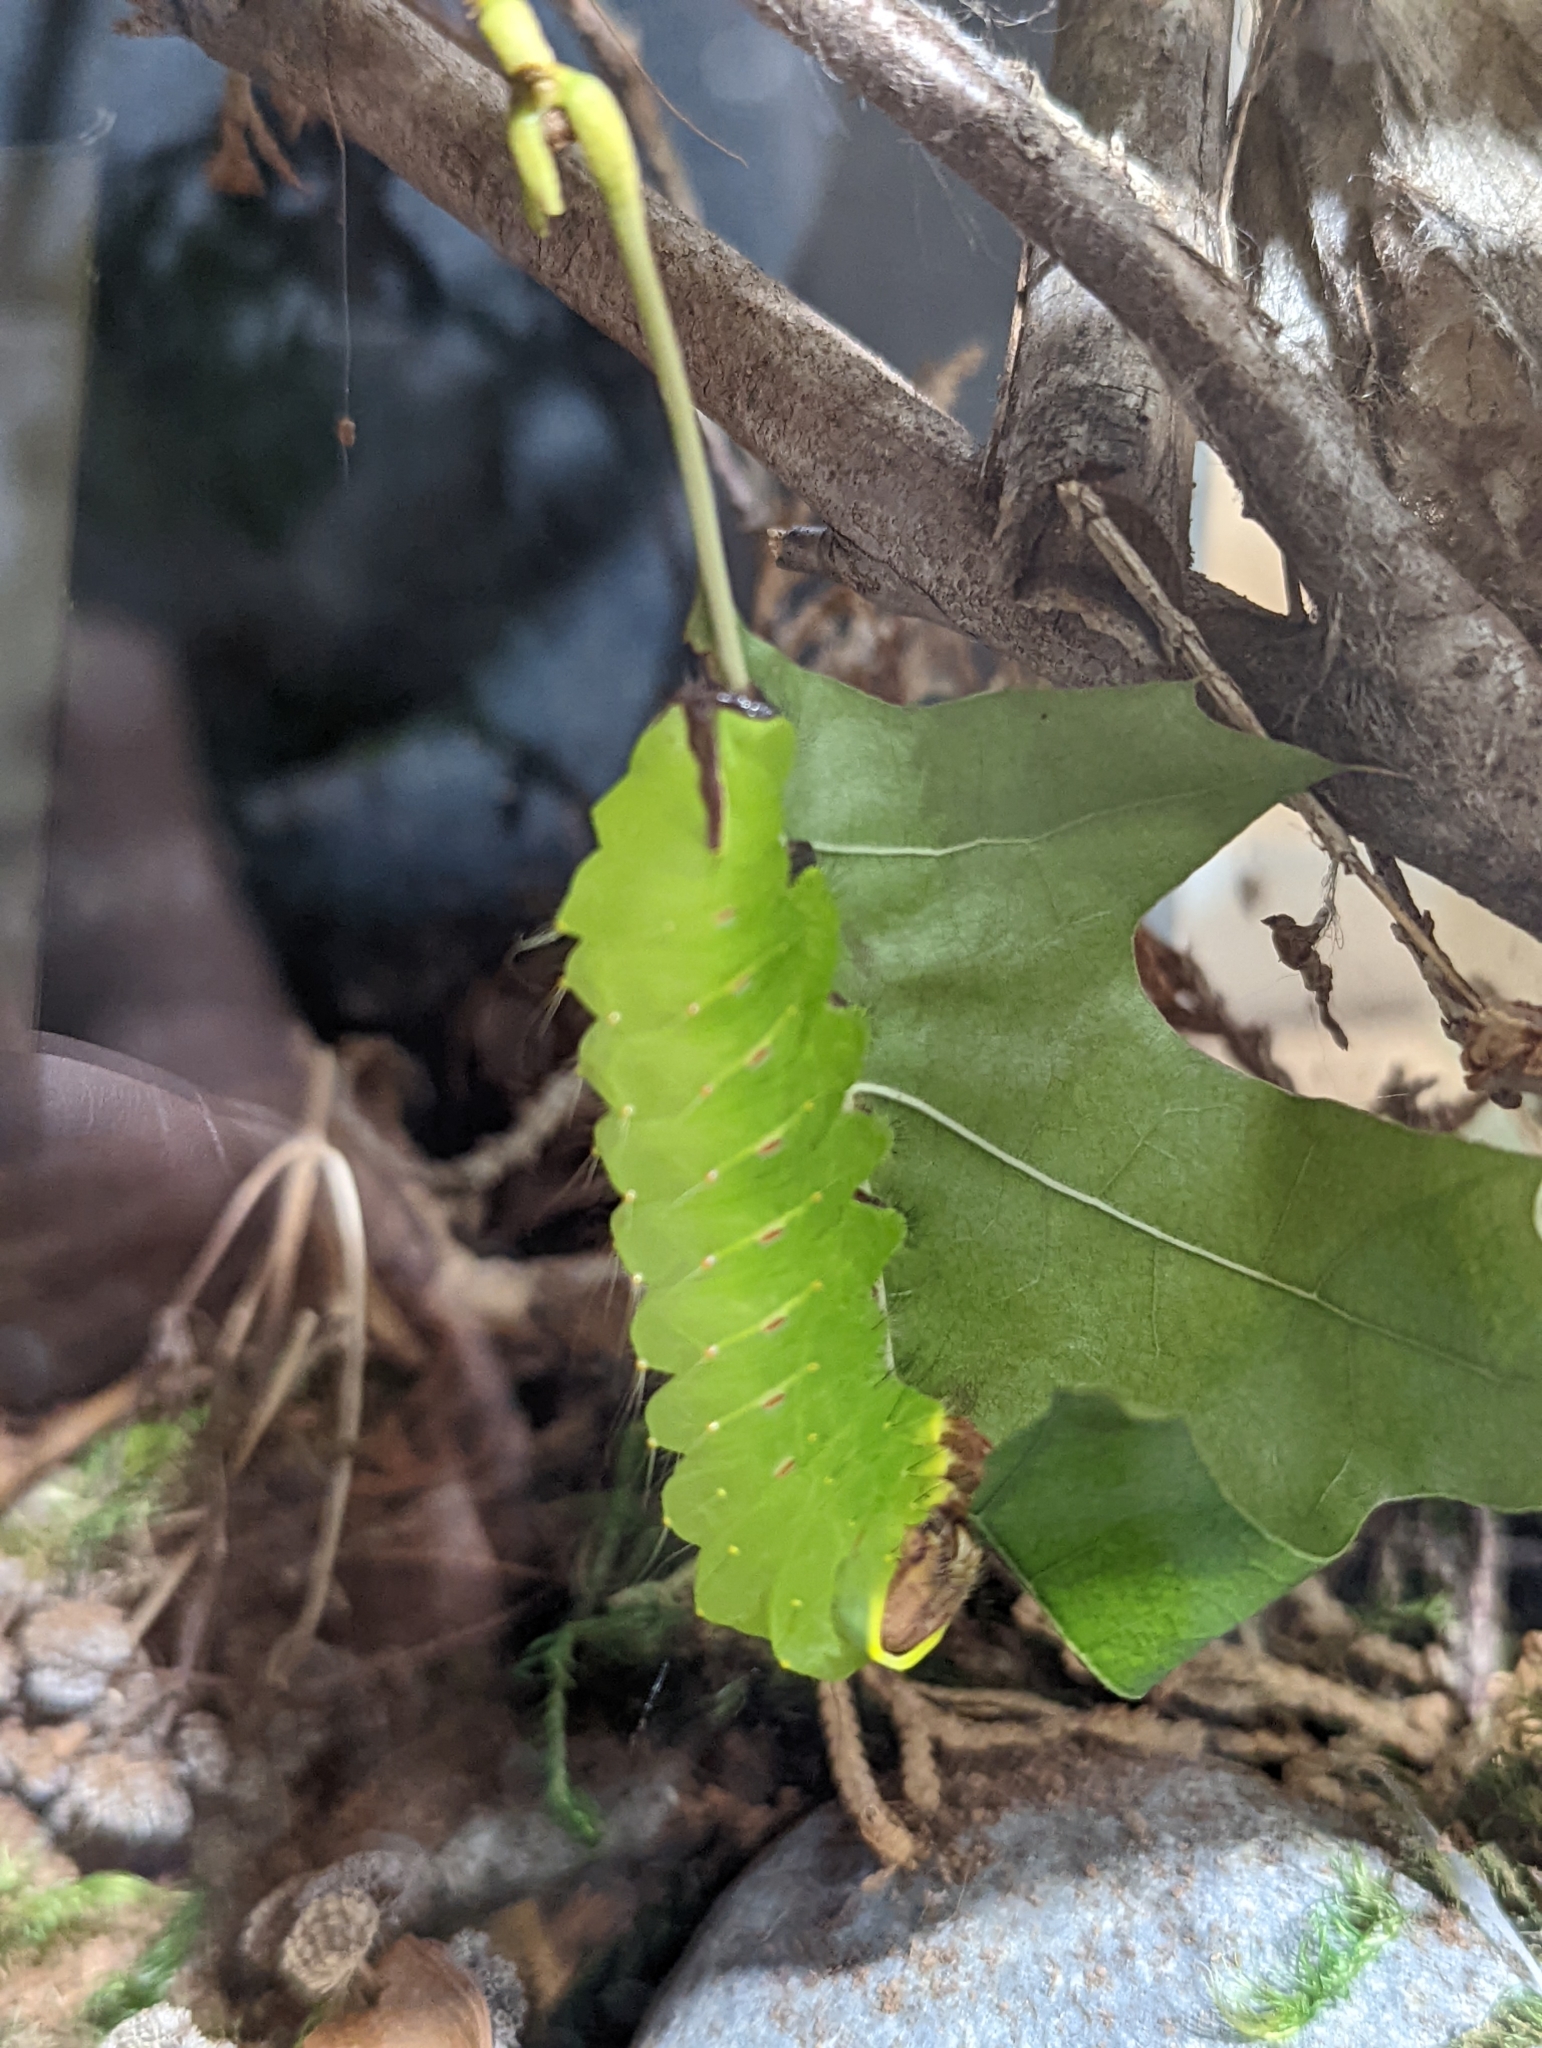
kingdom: Animalia
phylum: Arthropoda
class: Insecta
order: Lepidoptera
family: Saturniidae
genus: Antheraea
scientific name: Antheraea polyphemus
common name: Polyphemus moth
